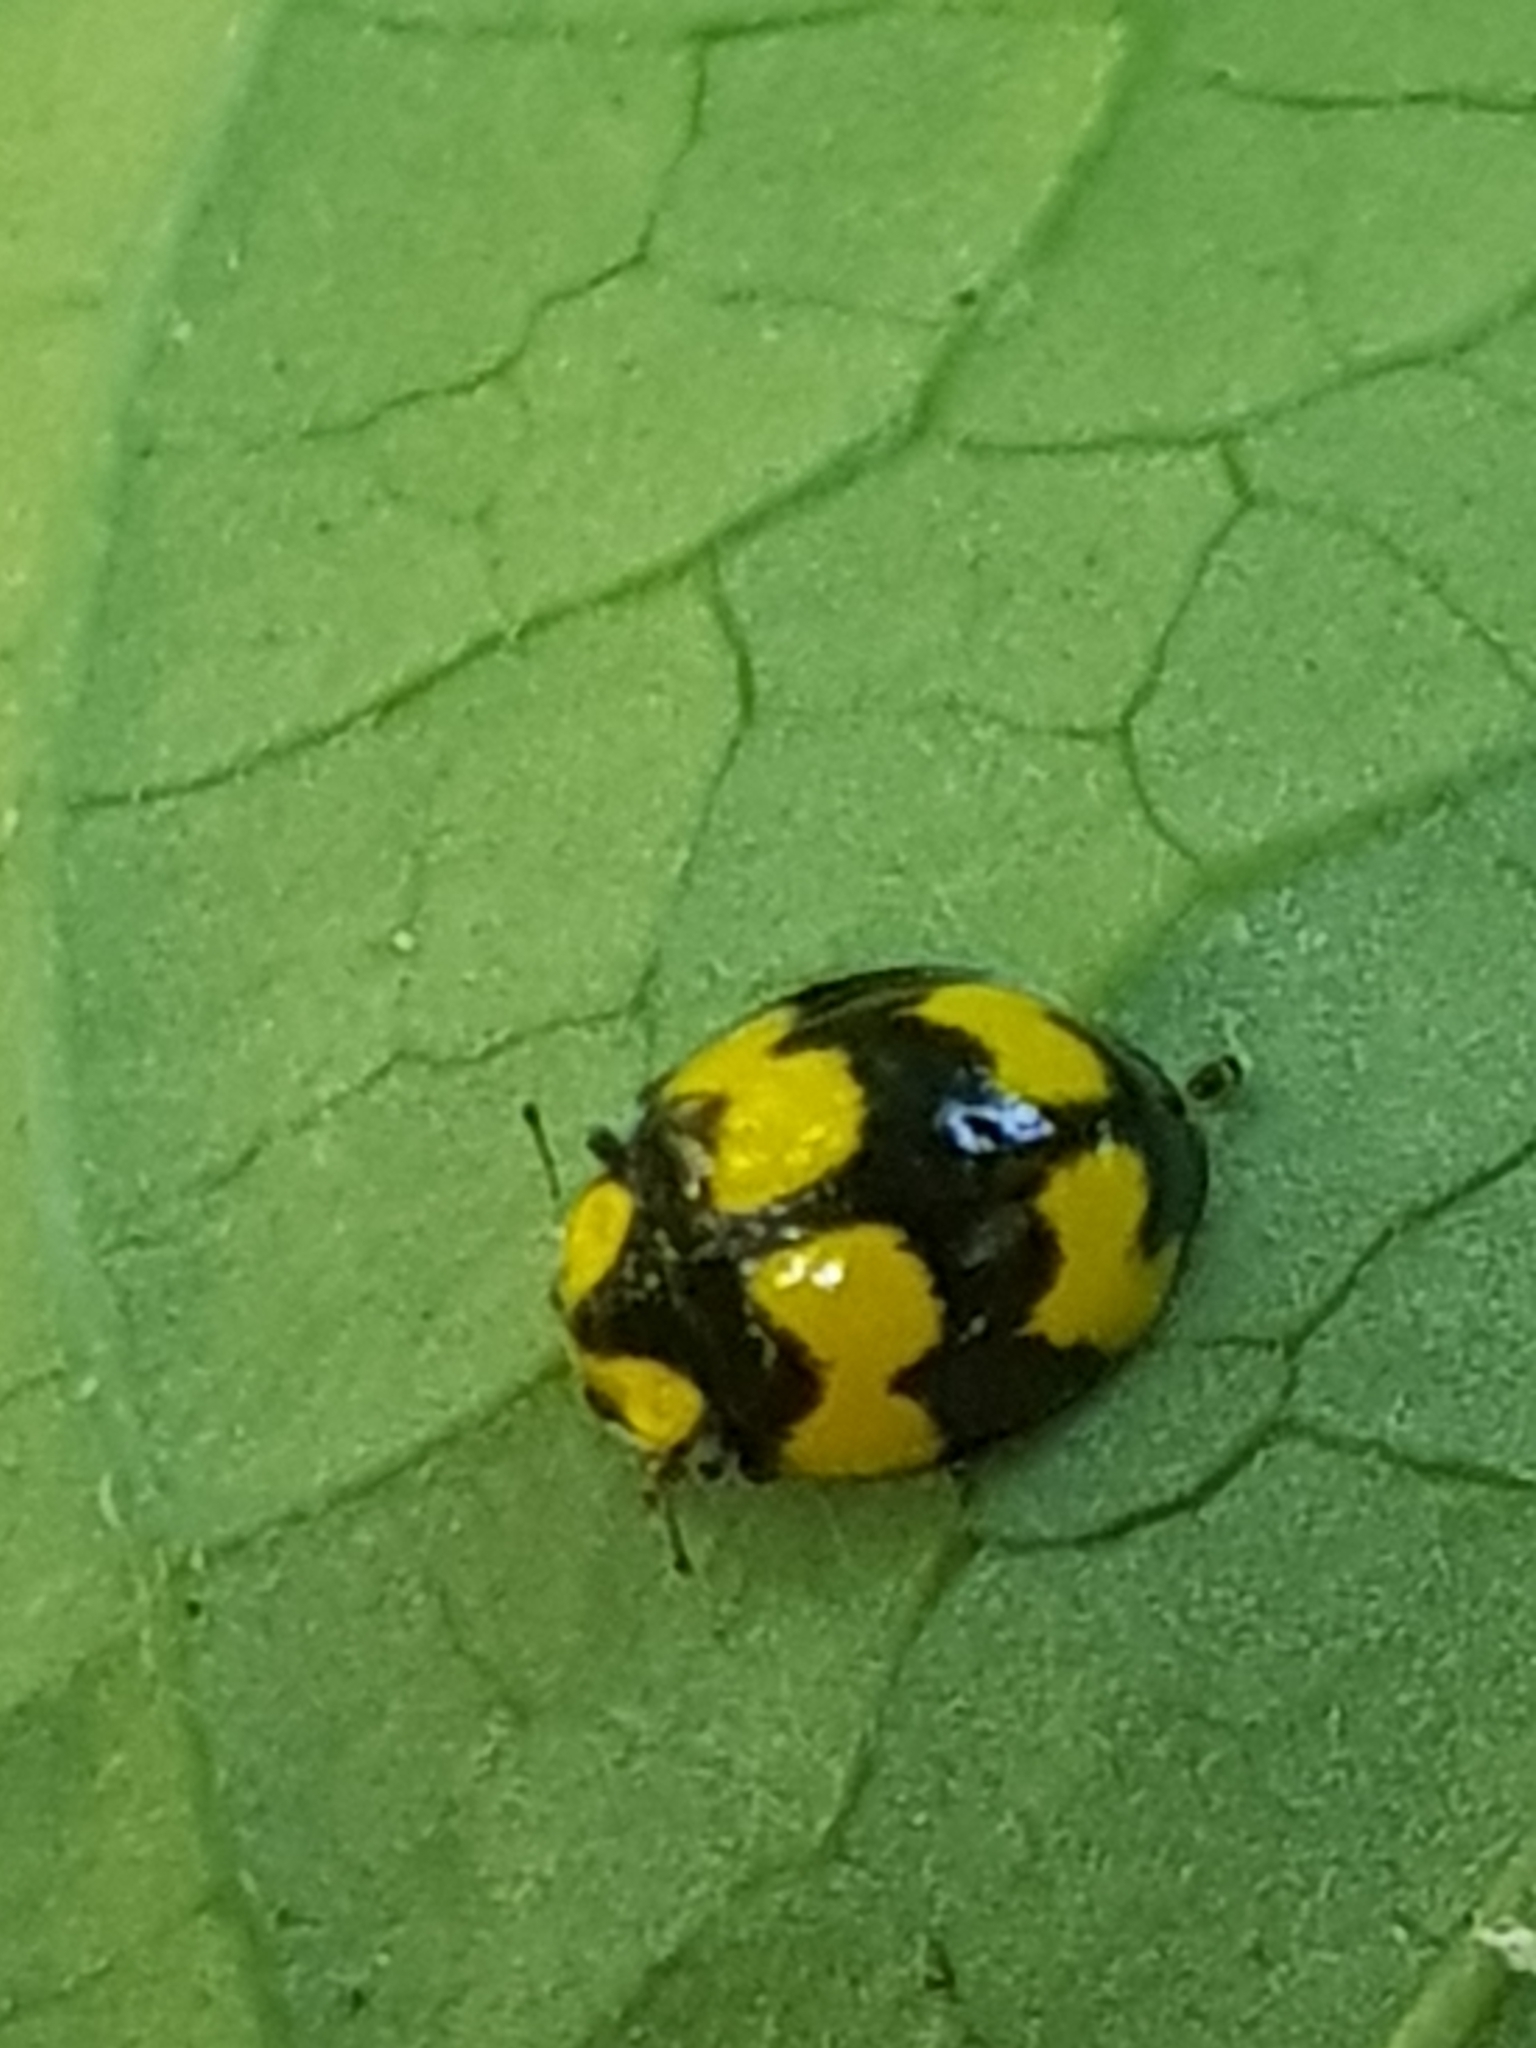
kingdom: Animalia
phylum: Arthropoda
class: Insecta
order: Coleoptera
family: Coccinellidae
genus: Illeis
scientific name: Illeis galbula
